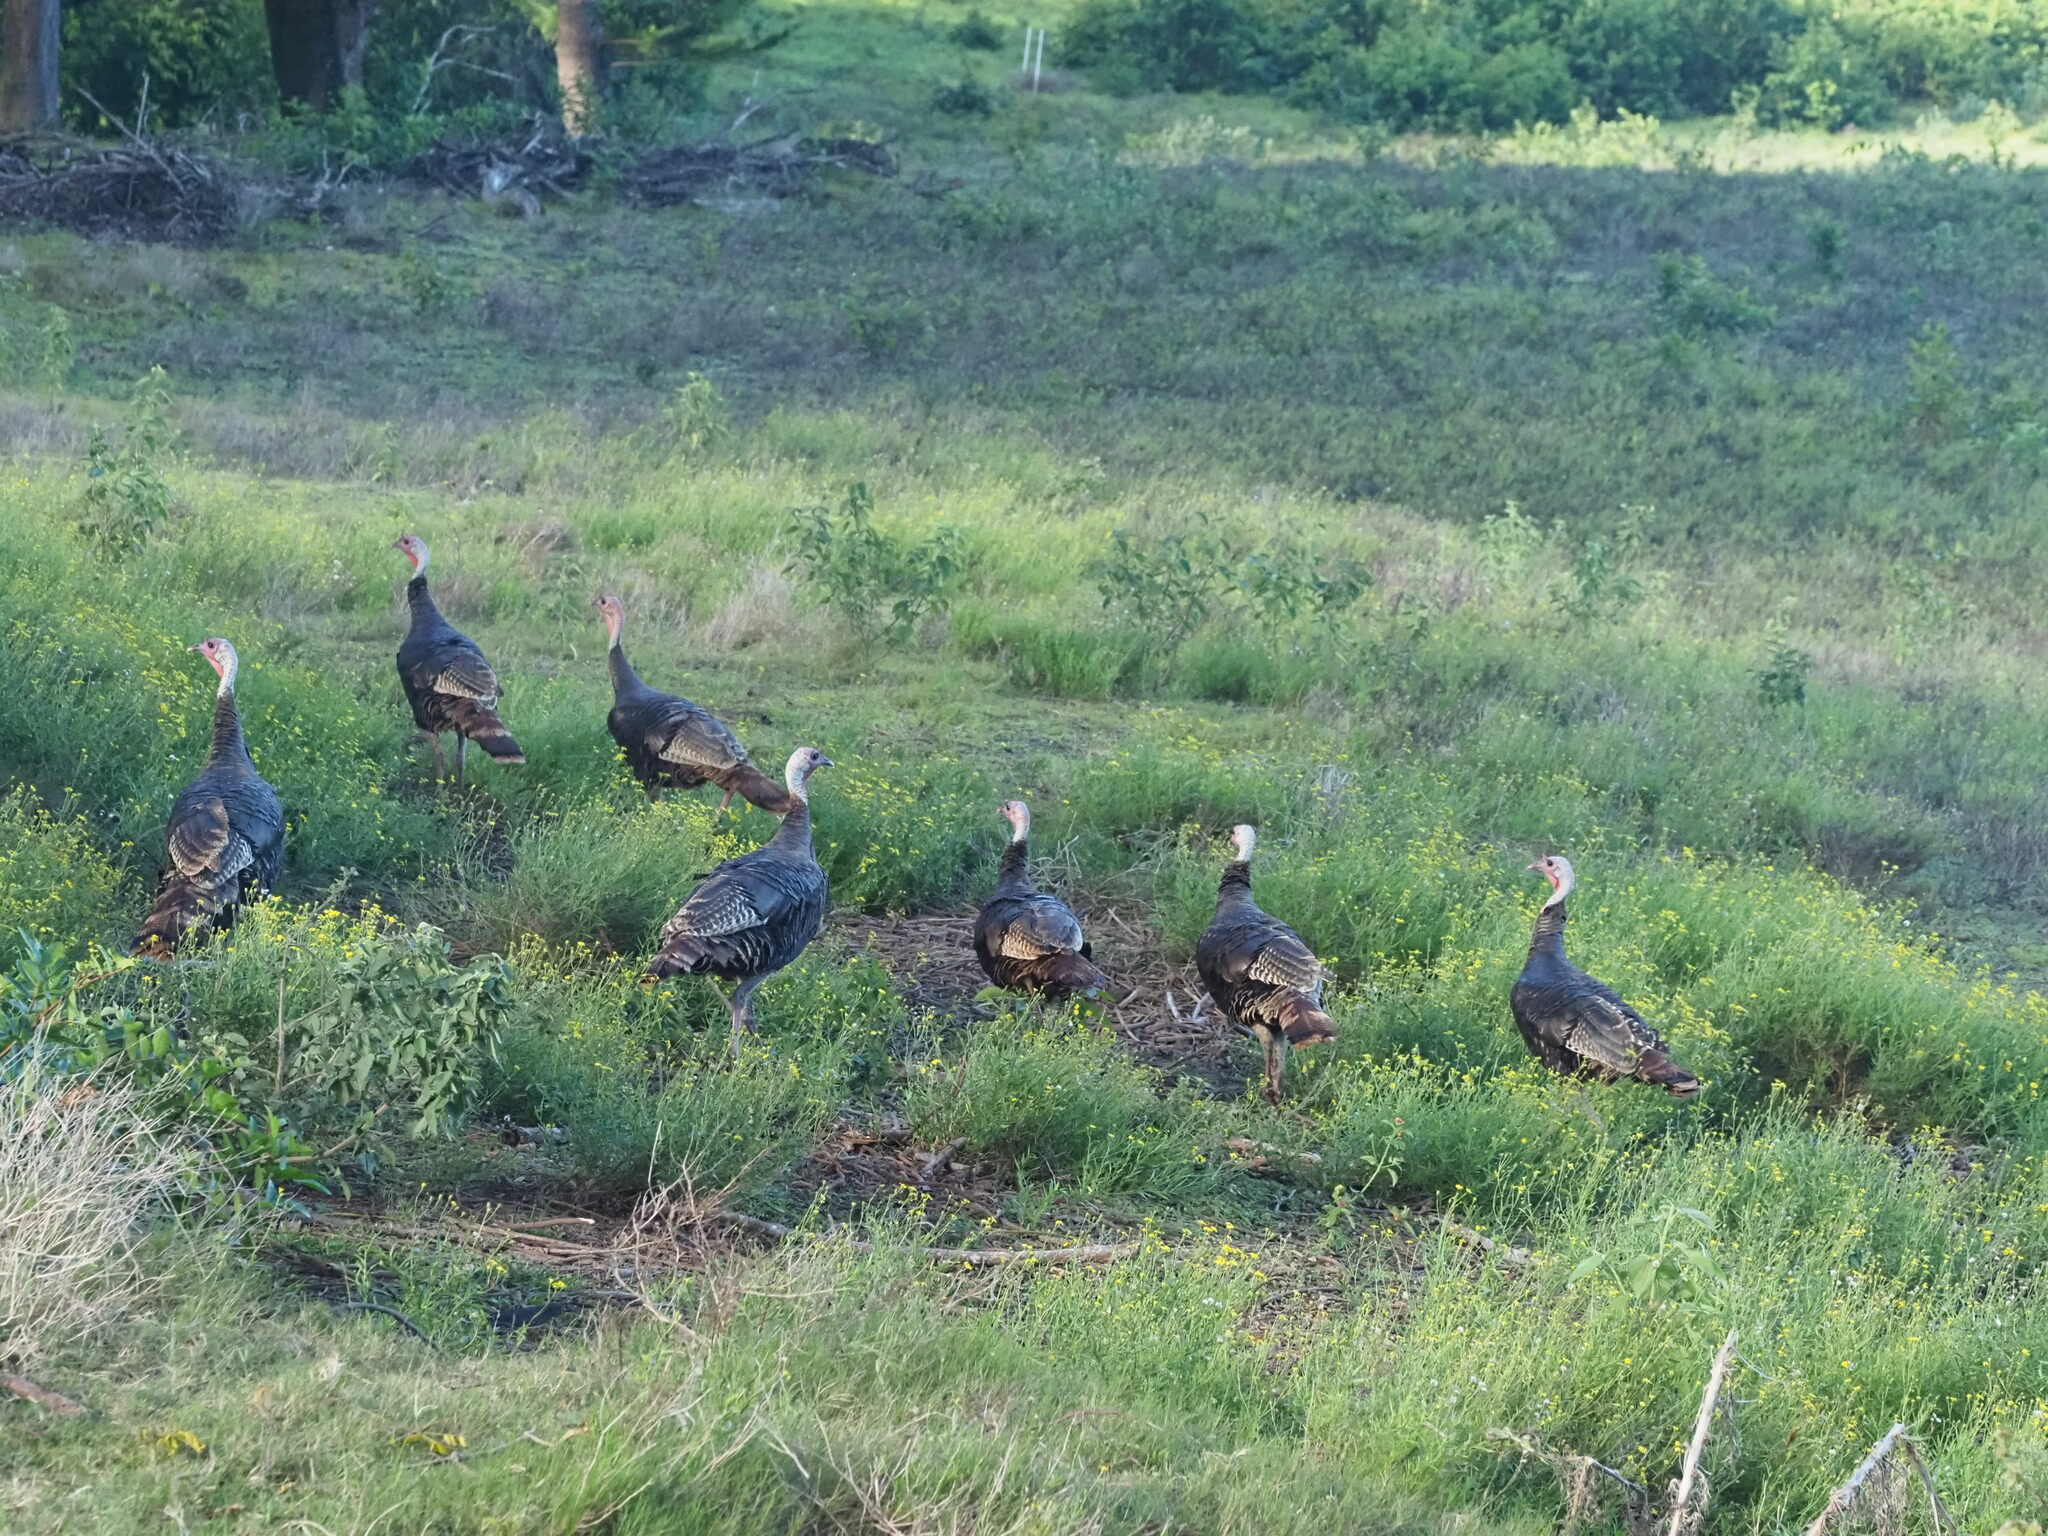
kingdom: Animalia
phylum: Chordata
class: Aves
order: Galliformes
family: Phasianidae
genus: Meleagris
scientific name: Meleagris gallopavo
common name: Wild turkey
